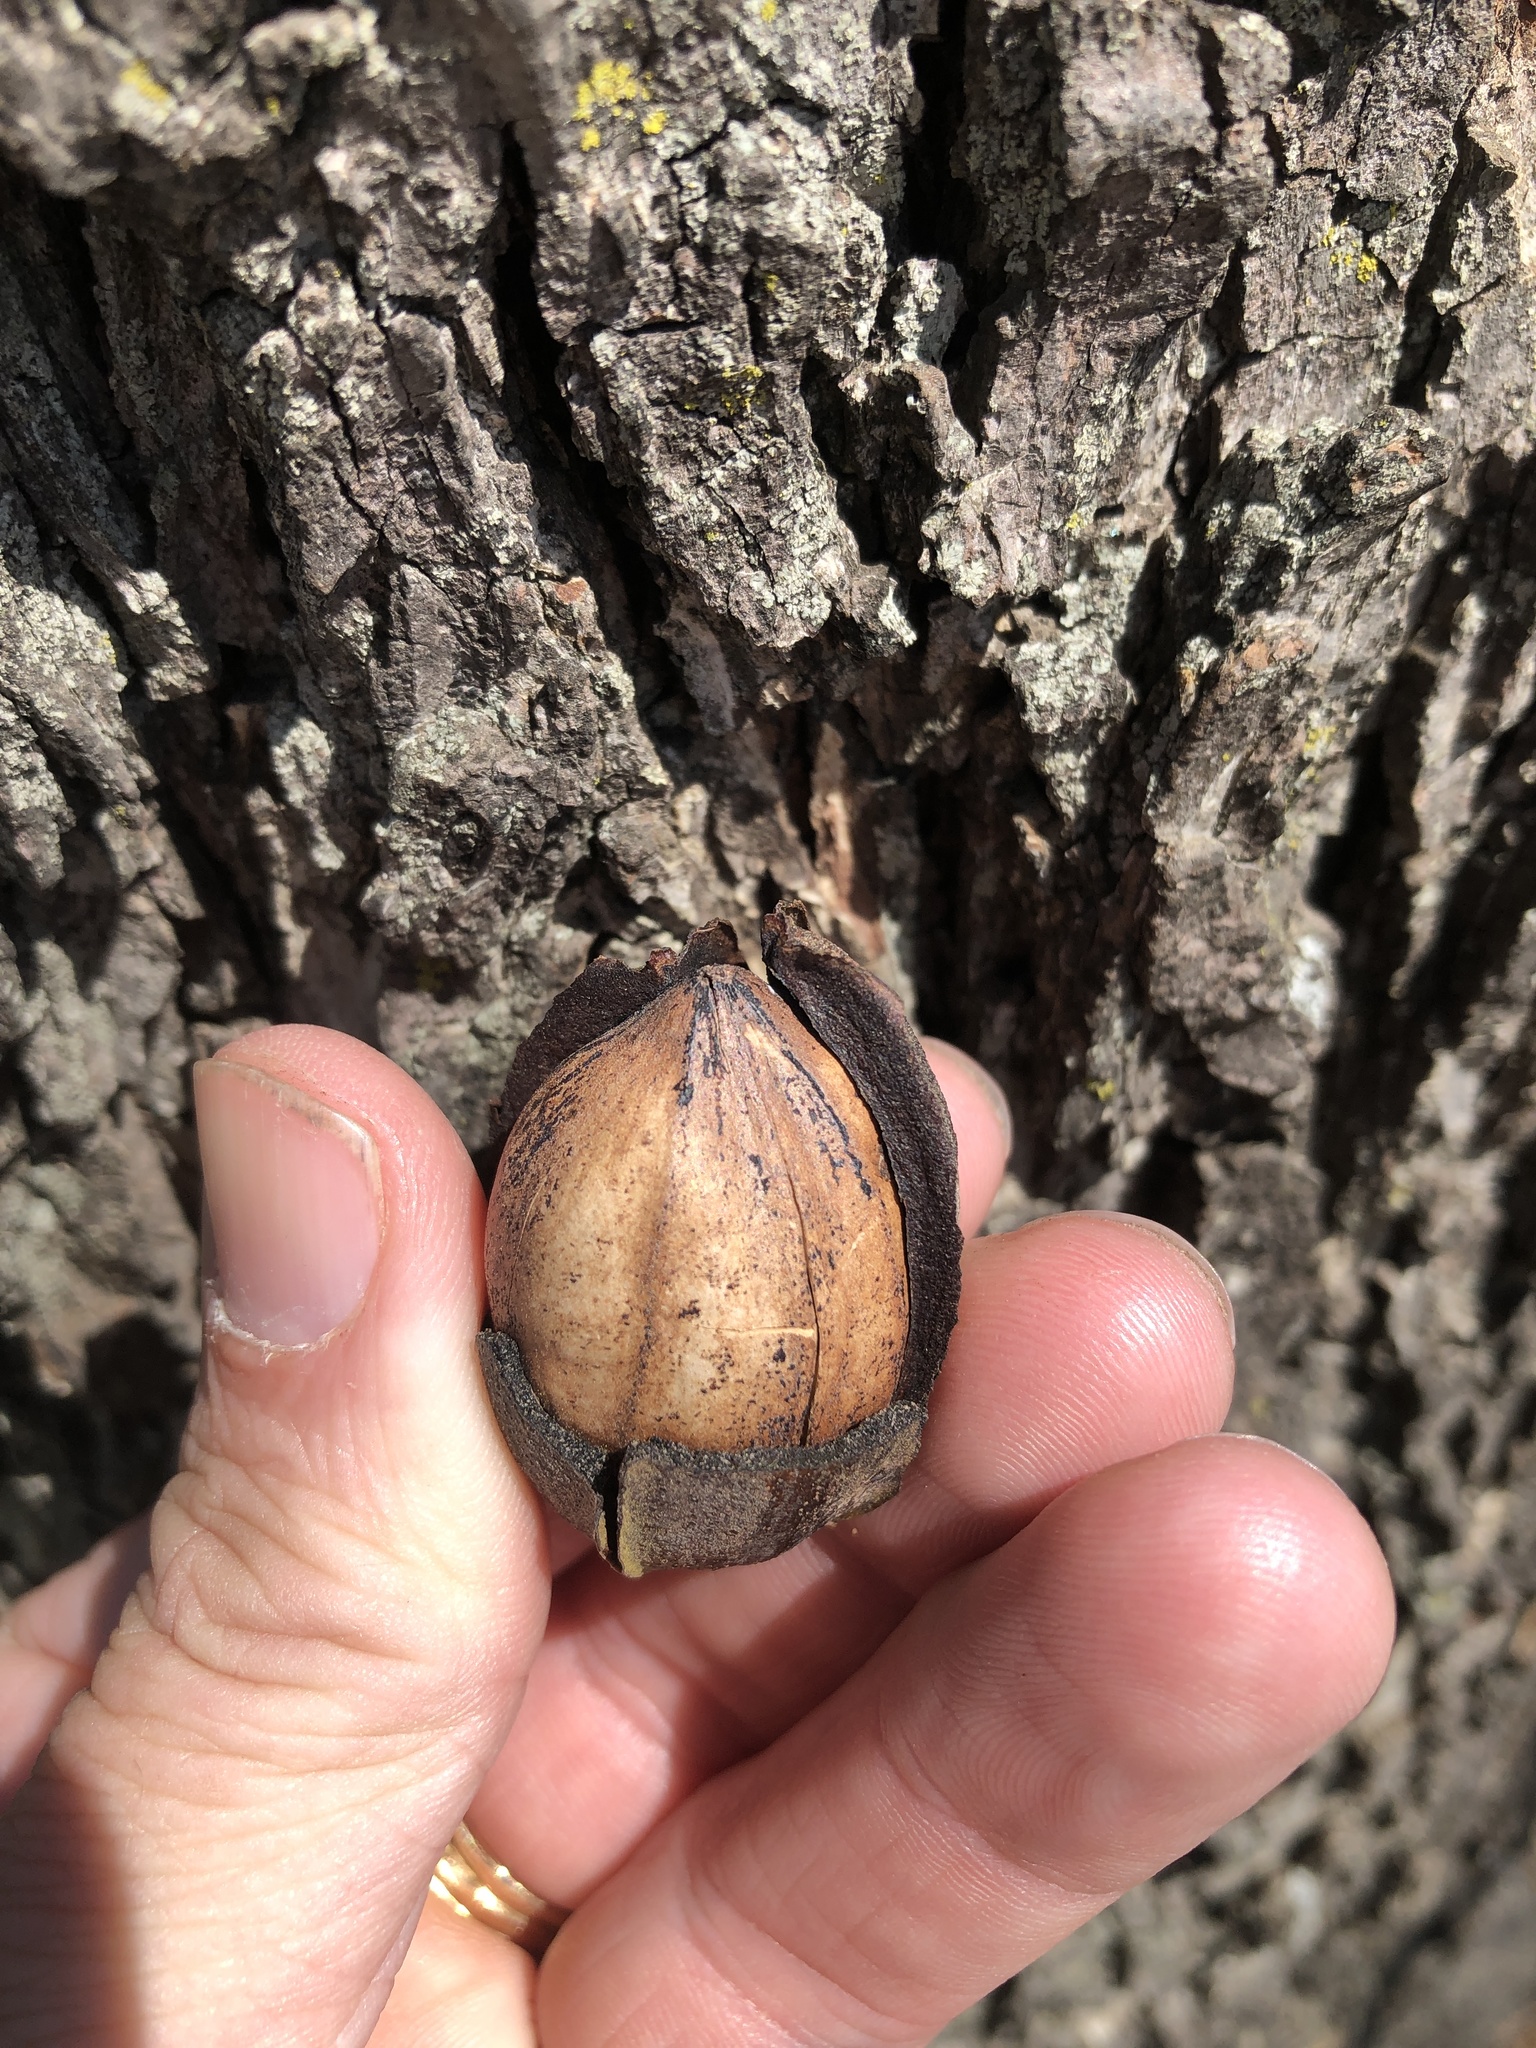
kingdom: Plantae
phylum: Tracheophyta
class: Magnoliopsida
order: Fagales
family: Juglandaceae
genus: Carya
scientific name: Carya illinoinensis
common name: Pecan
